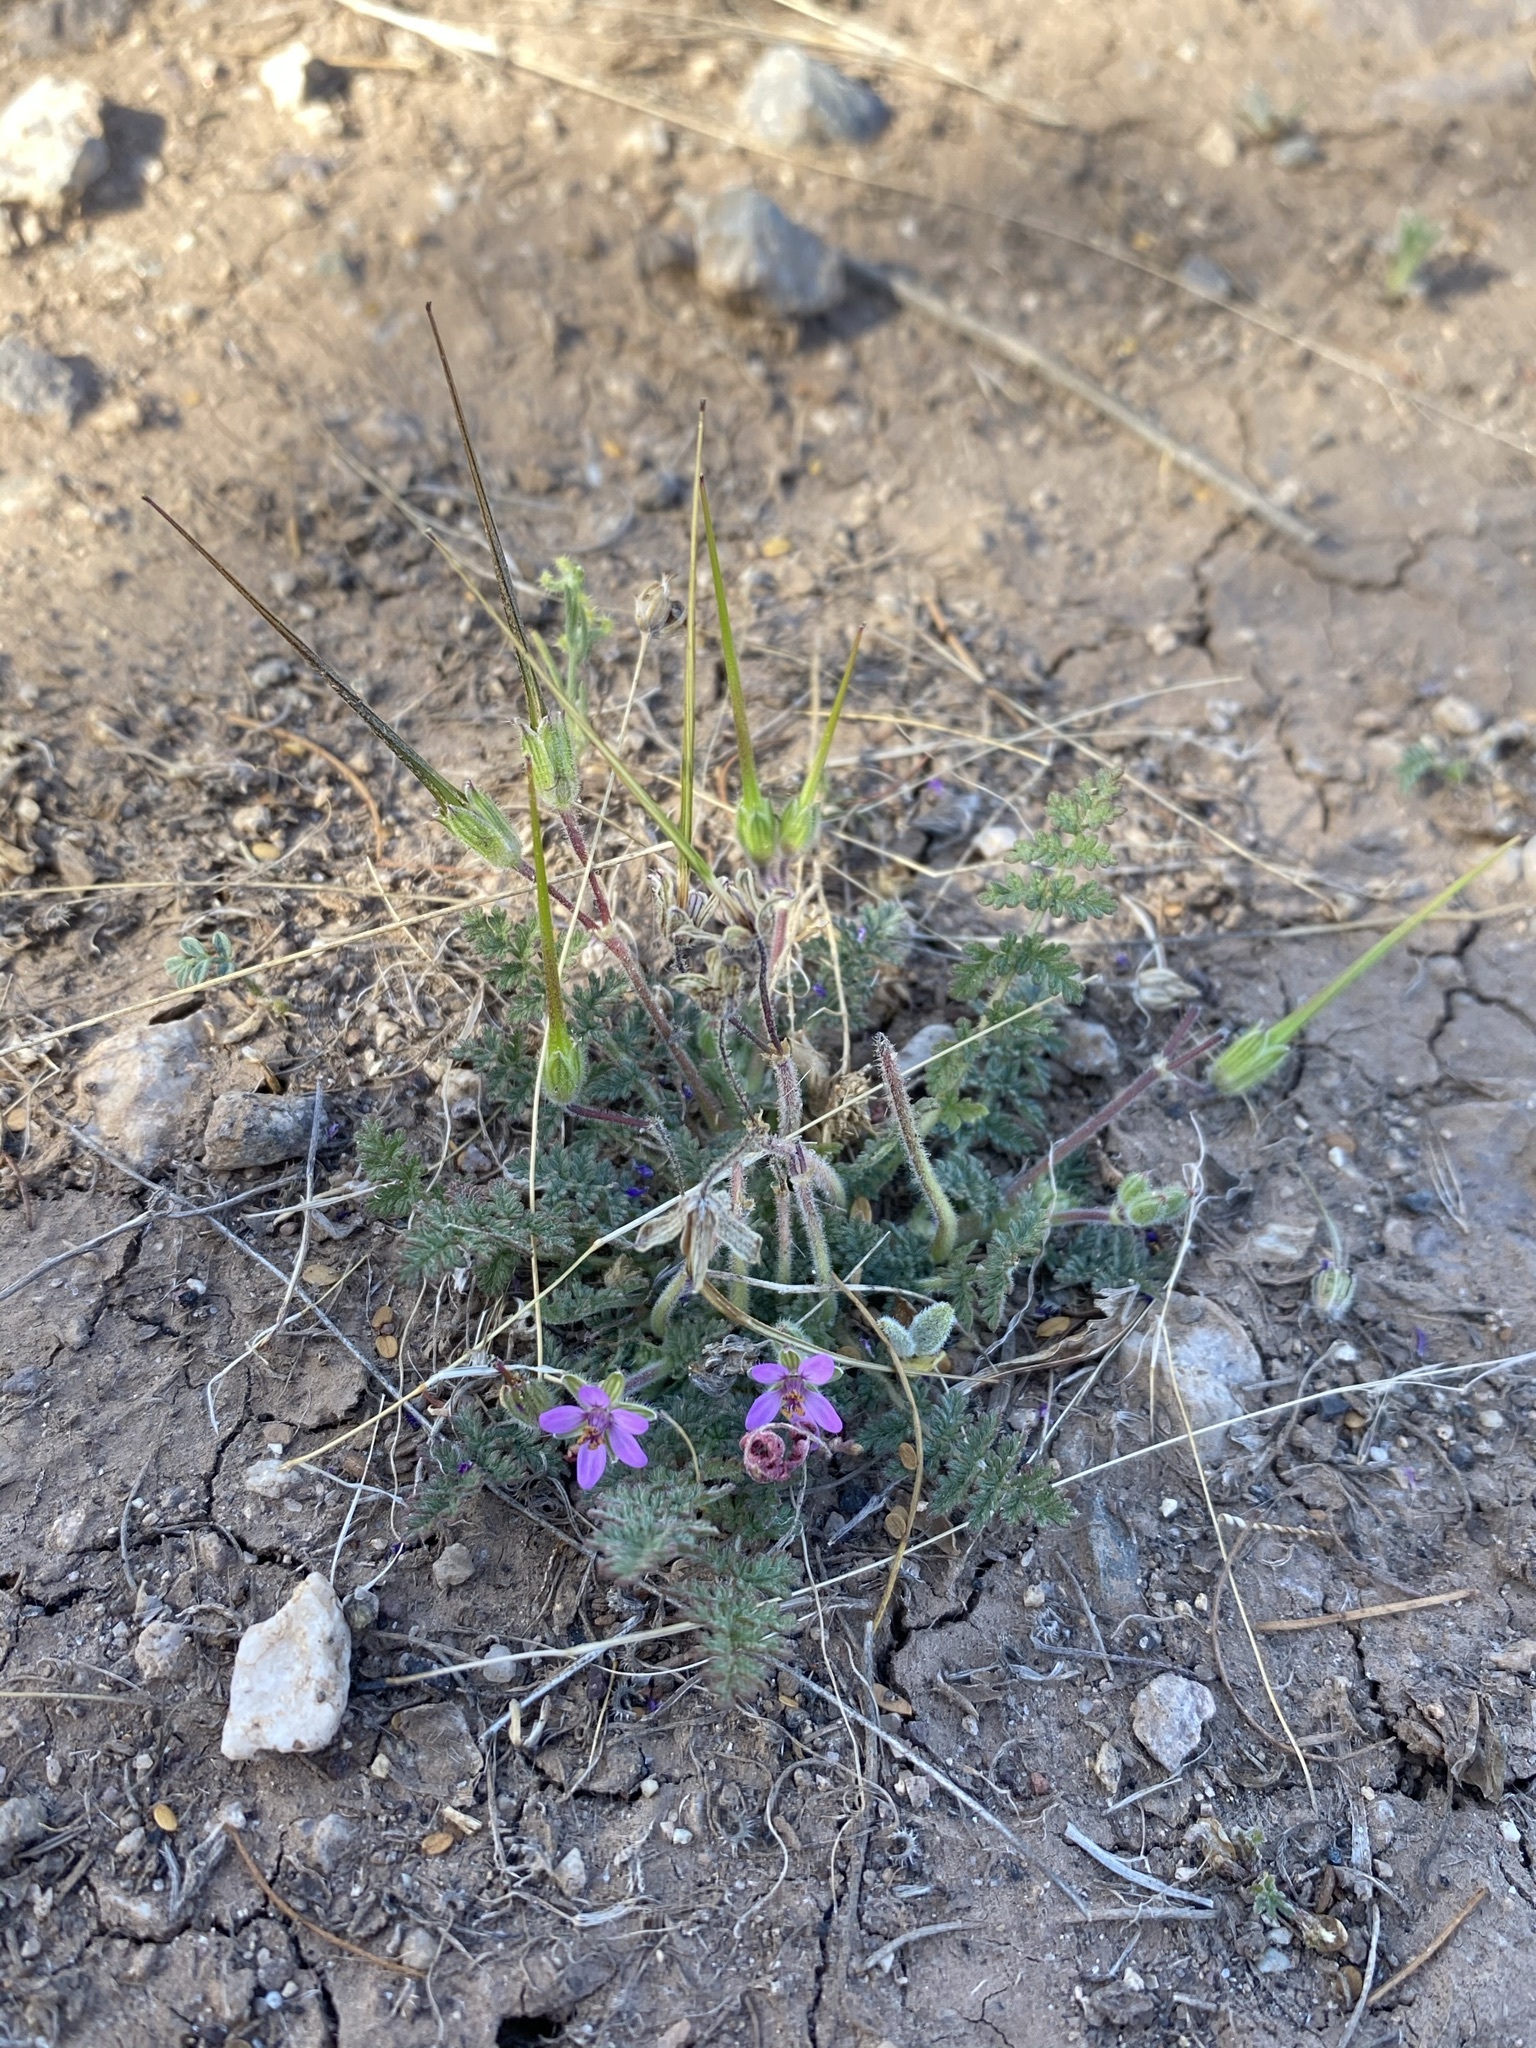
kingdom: Plantae
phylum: Tracheophyta
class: Magnoliopsida
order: Geraniales
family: Geraniaceae
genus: Erodium
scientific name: Erodium cicutarium
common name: Common stork's-bill
